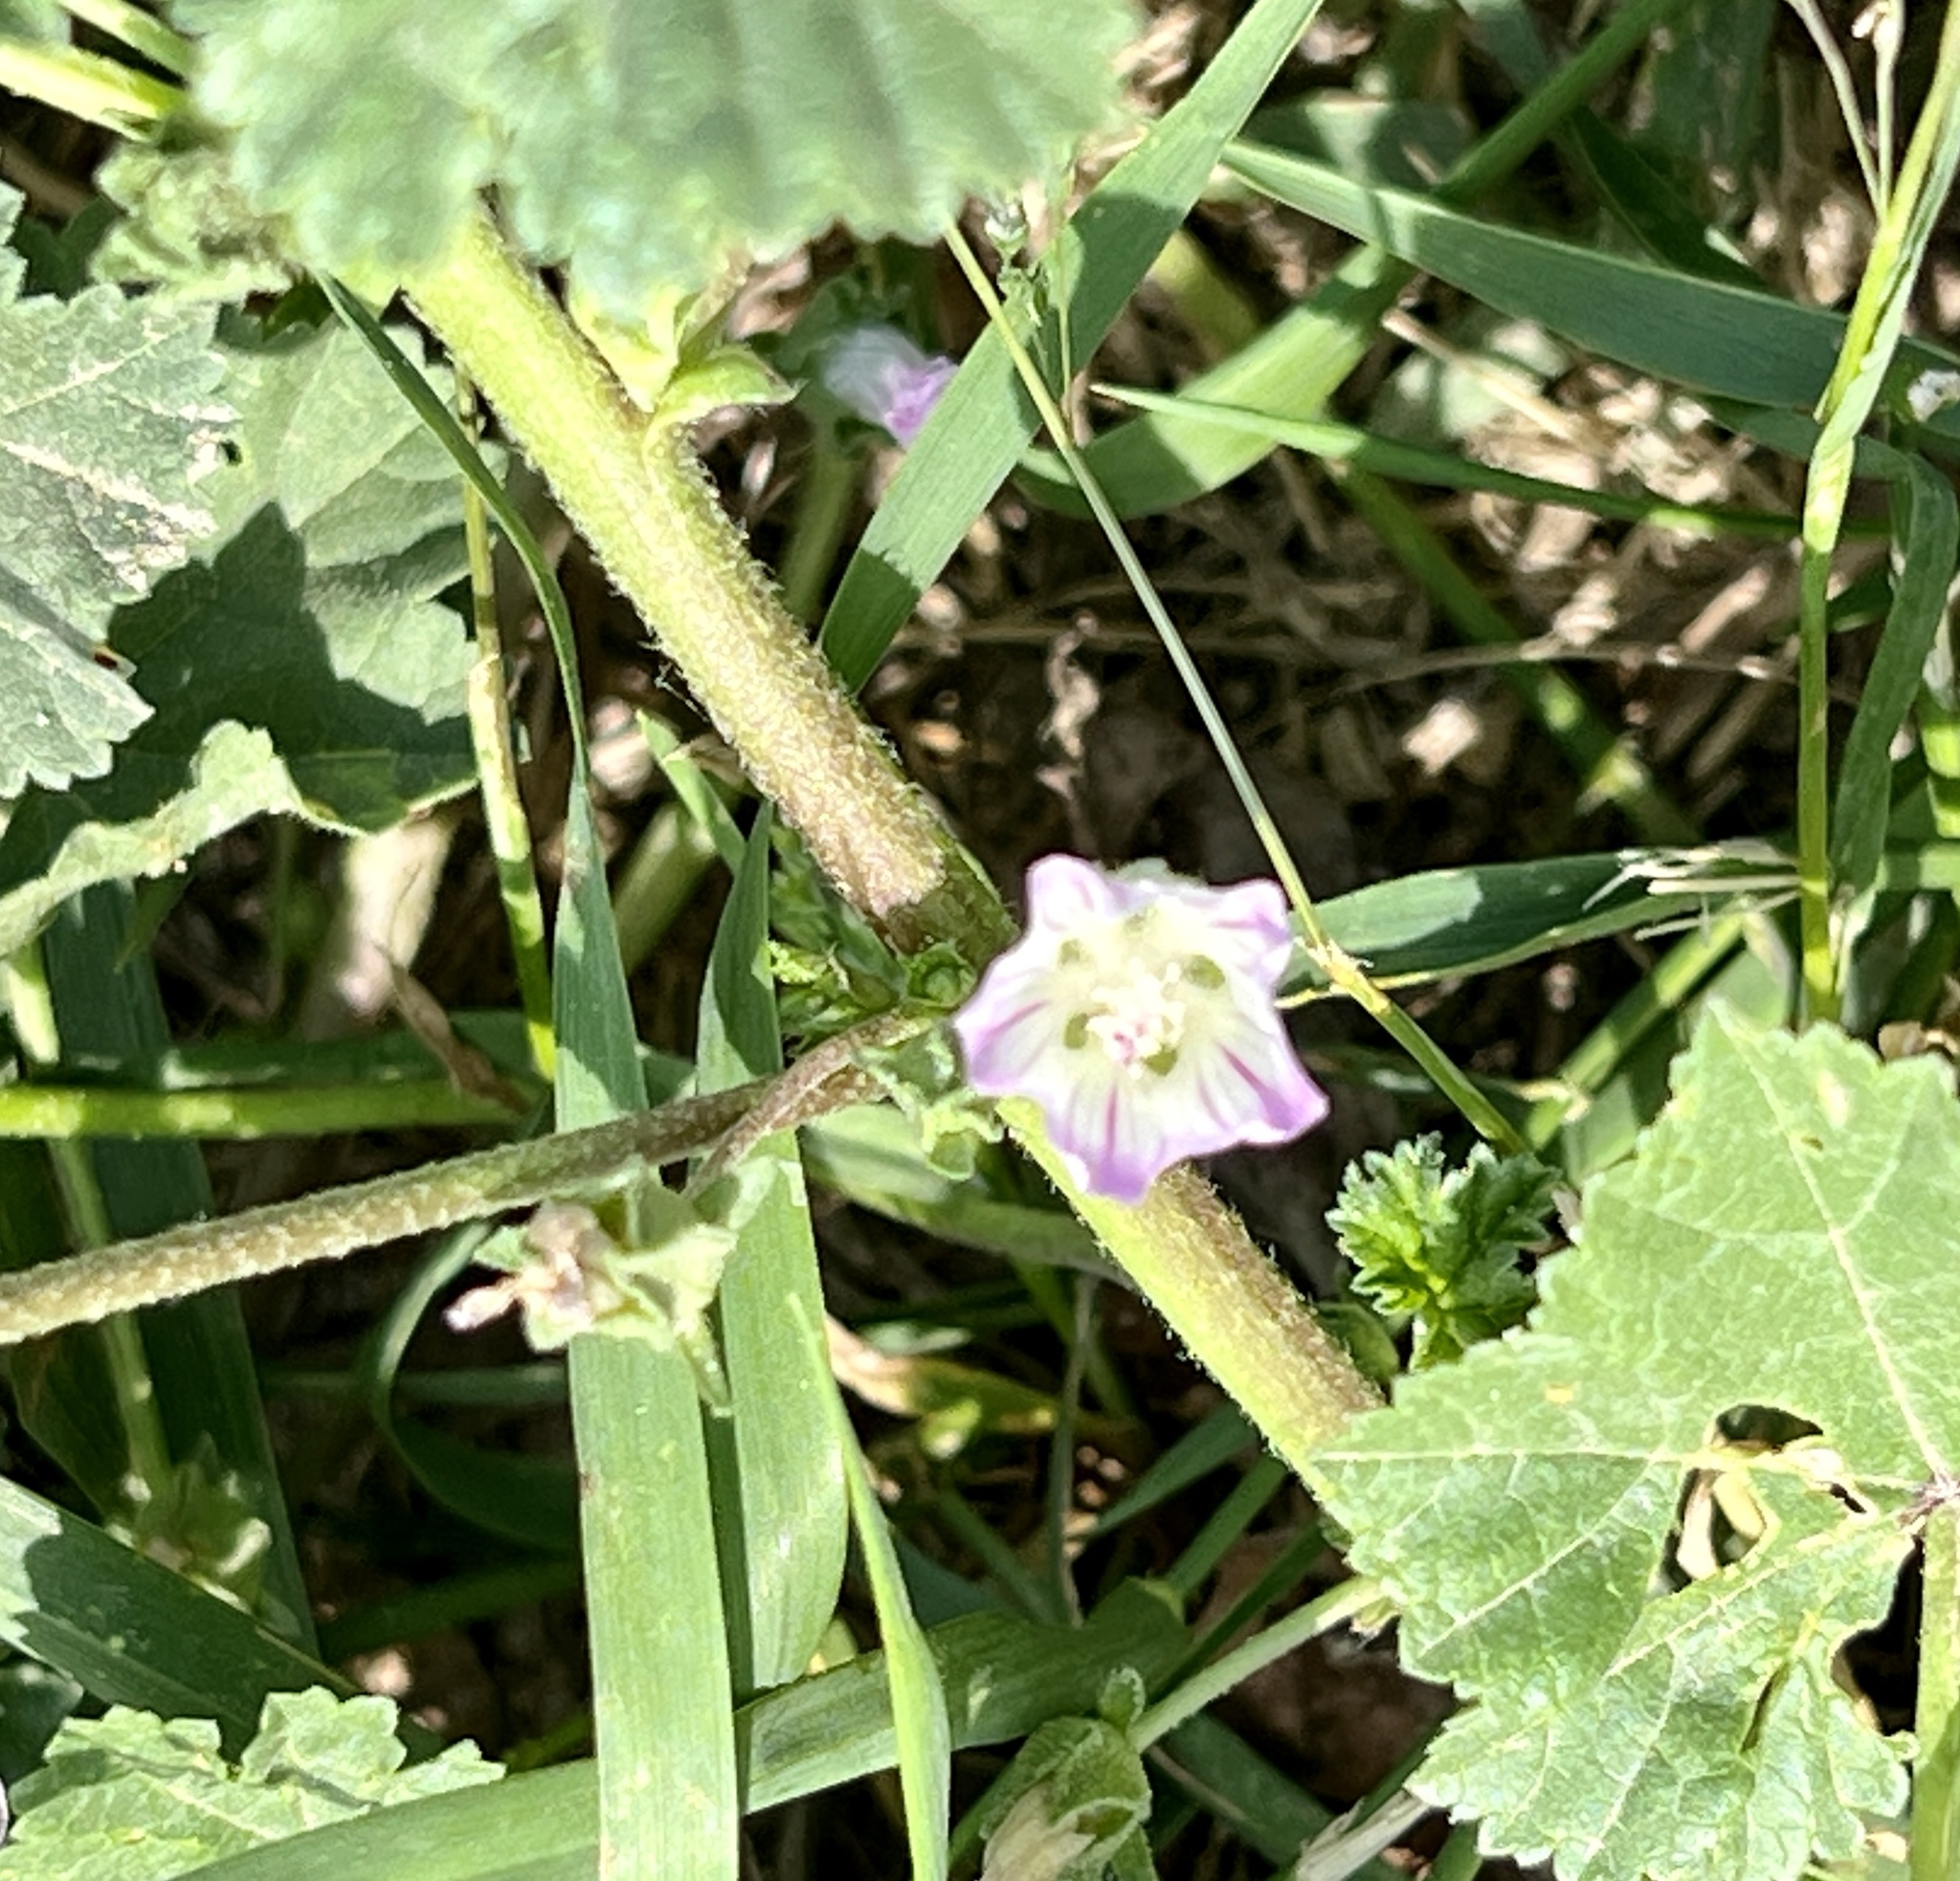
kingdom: Plantae
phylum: Tracheophyta
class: Magnoliopsida
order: Malvales
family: Malvaceae
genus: Malva
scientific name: Malva neglecta
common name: Common mallow
